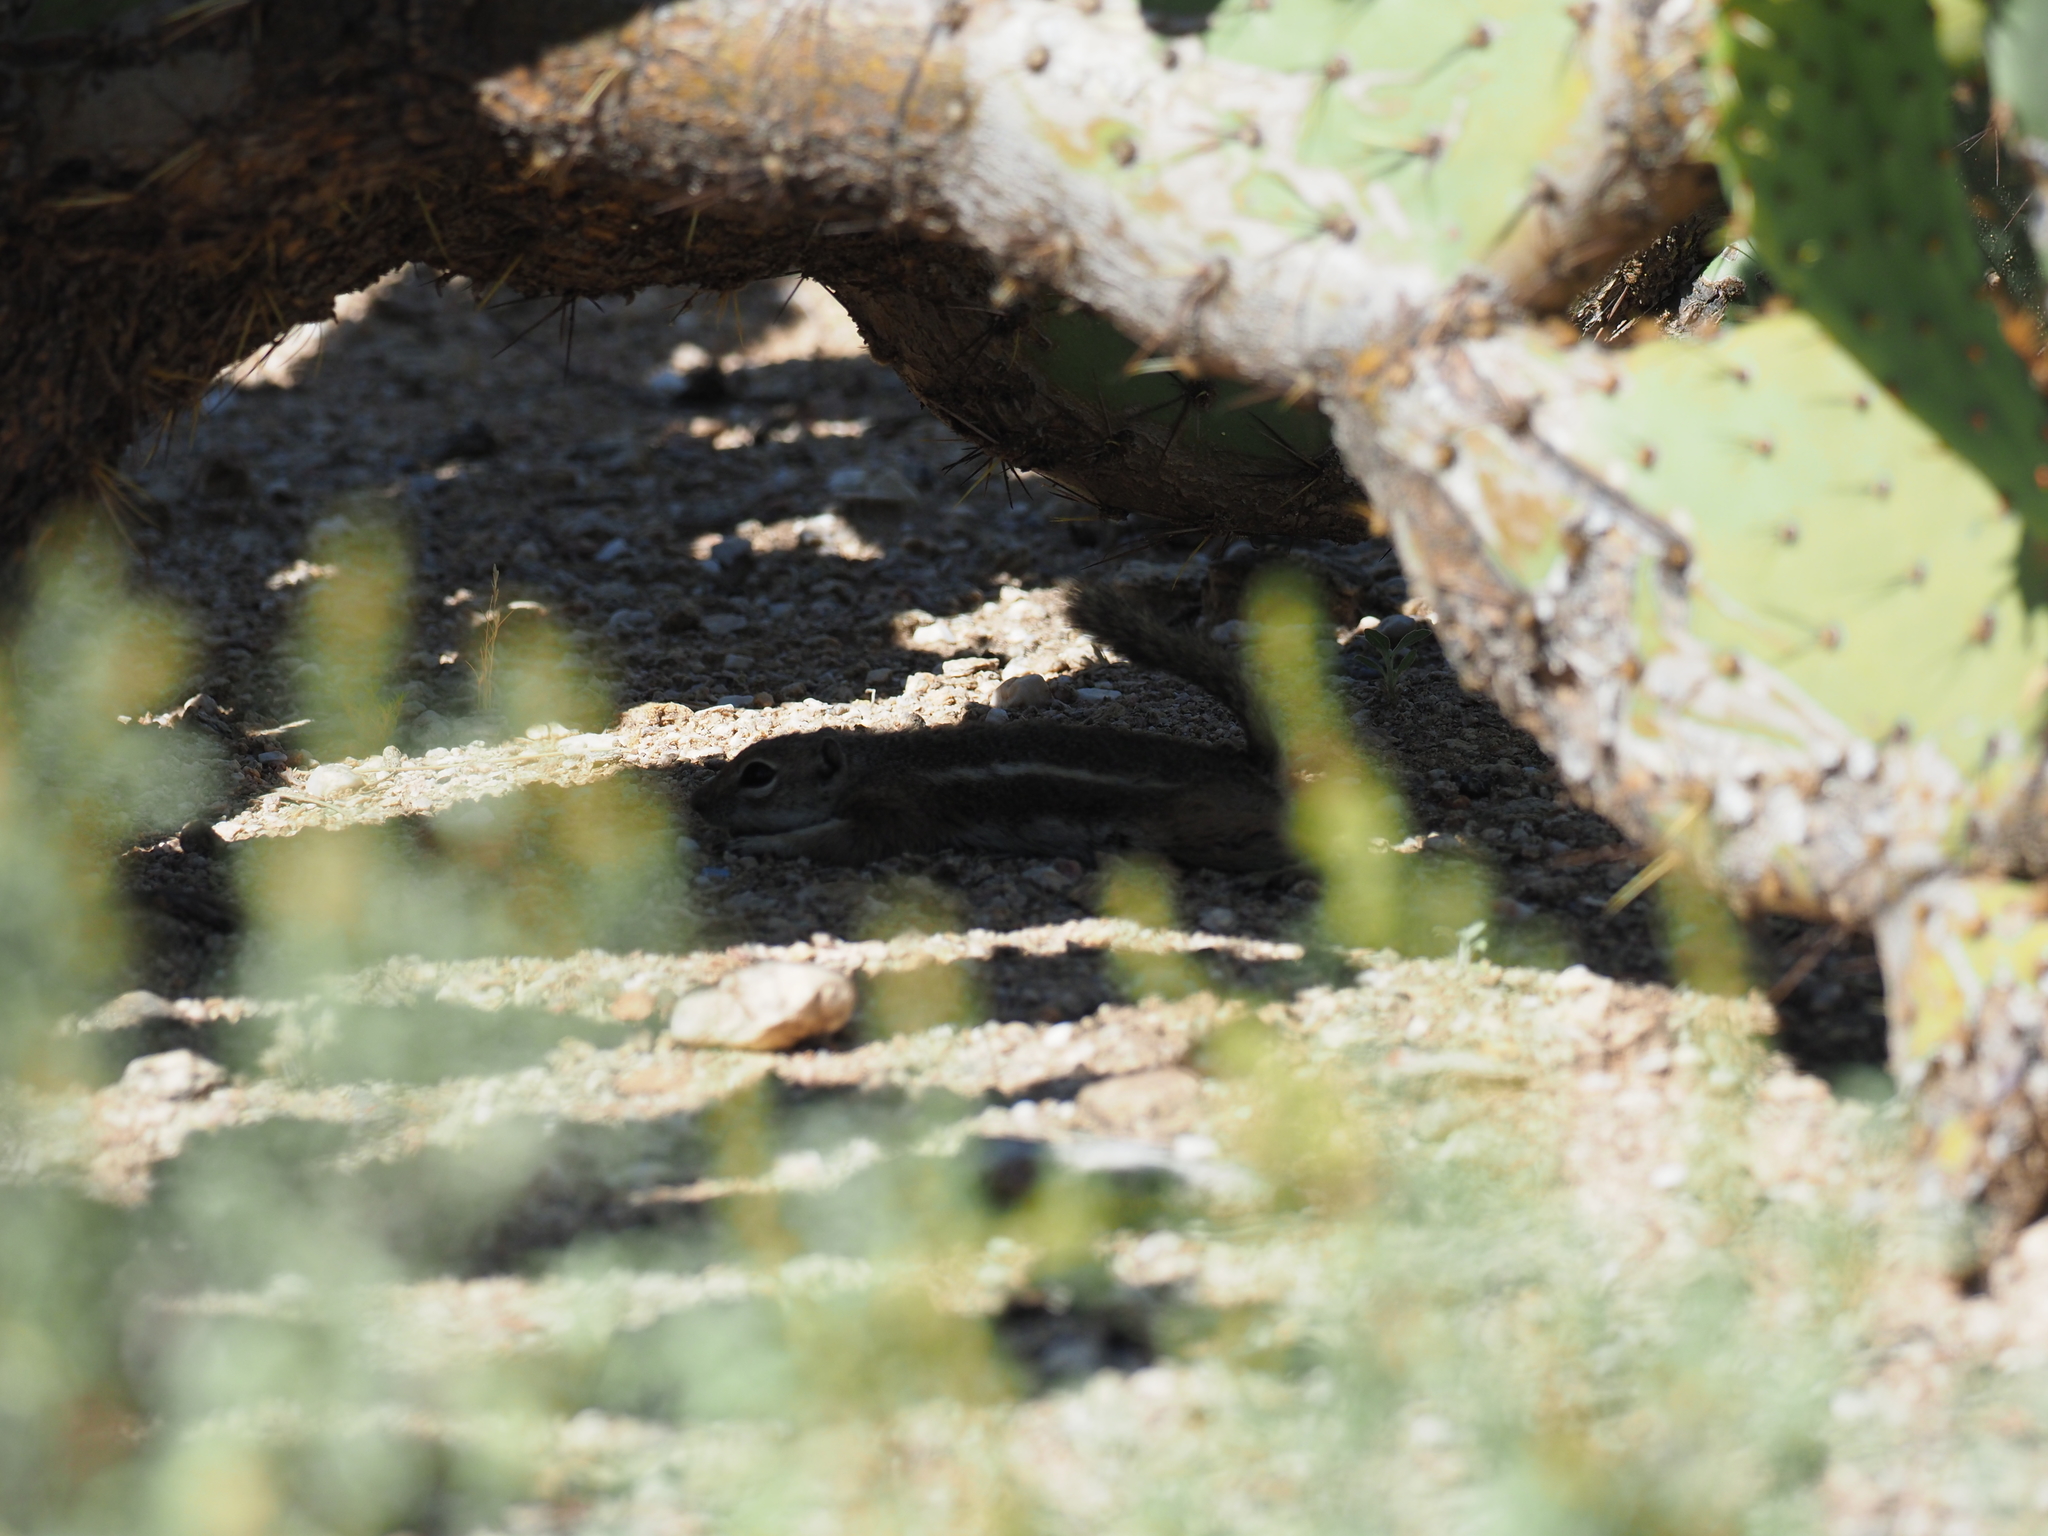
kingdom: Animalia
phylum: Chordata
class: Mammalia
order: Rodentia
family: Sciuridae
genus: Ammospermophilus
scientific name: Ammospermophilus harrisii
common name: Harris's antelope squirrel
